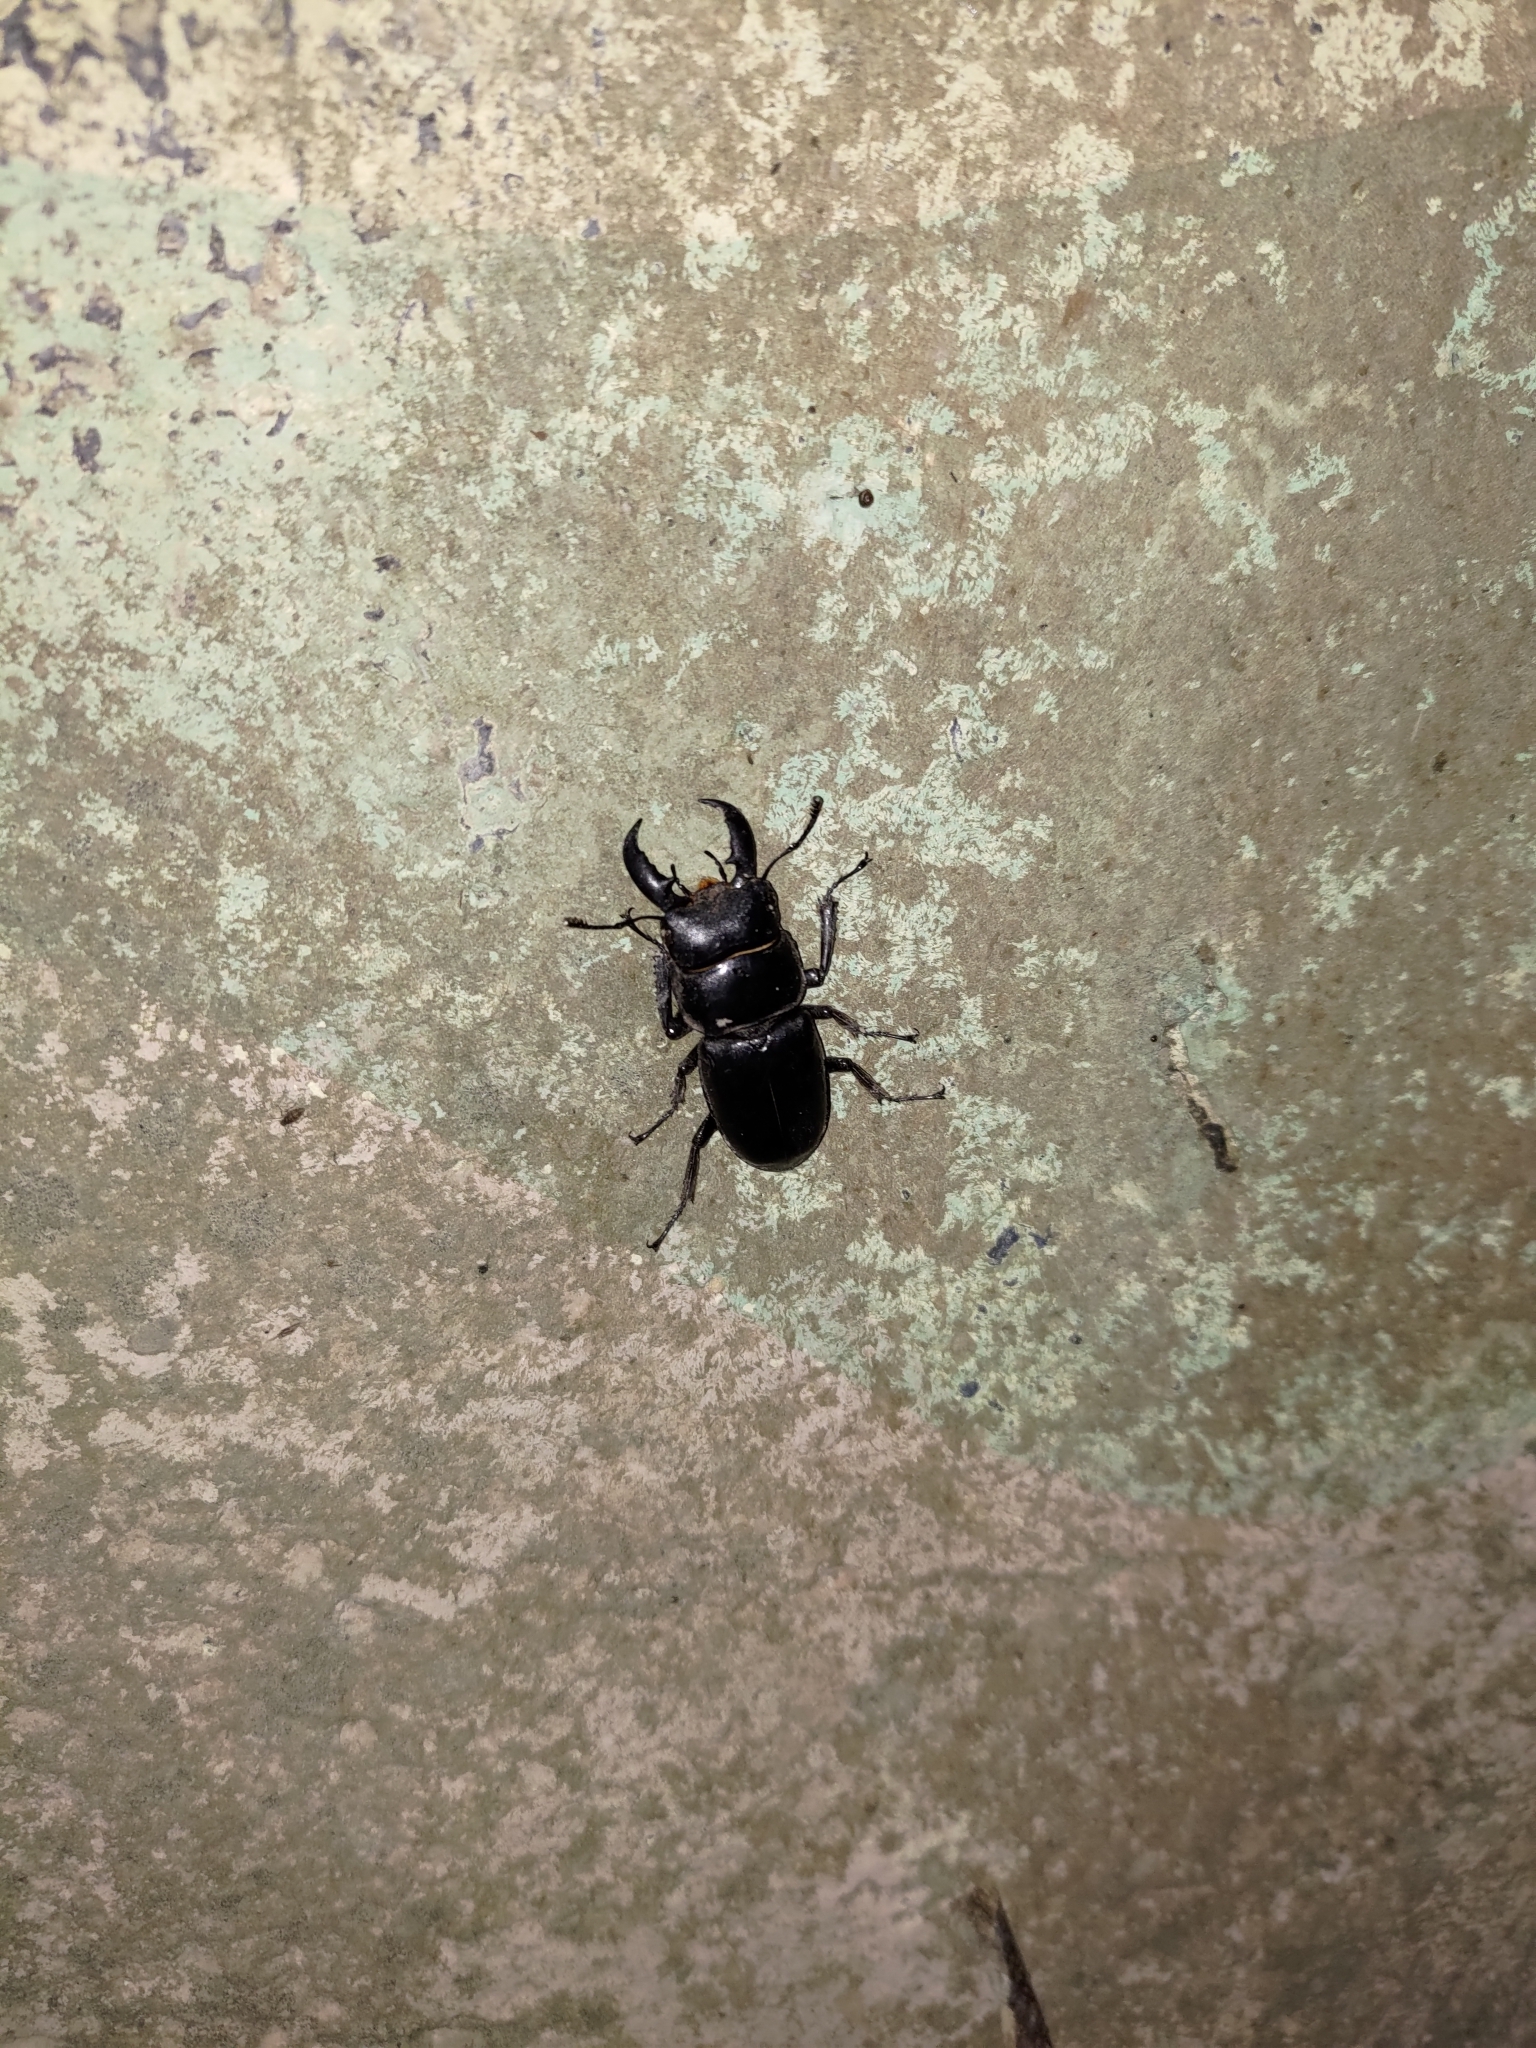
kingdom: Animalia
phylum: Arthropoda
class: Insecta
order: Coleoptera
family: Lucanidae
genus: Serrognathus
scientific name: Serrognathus titanus
